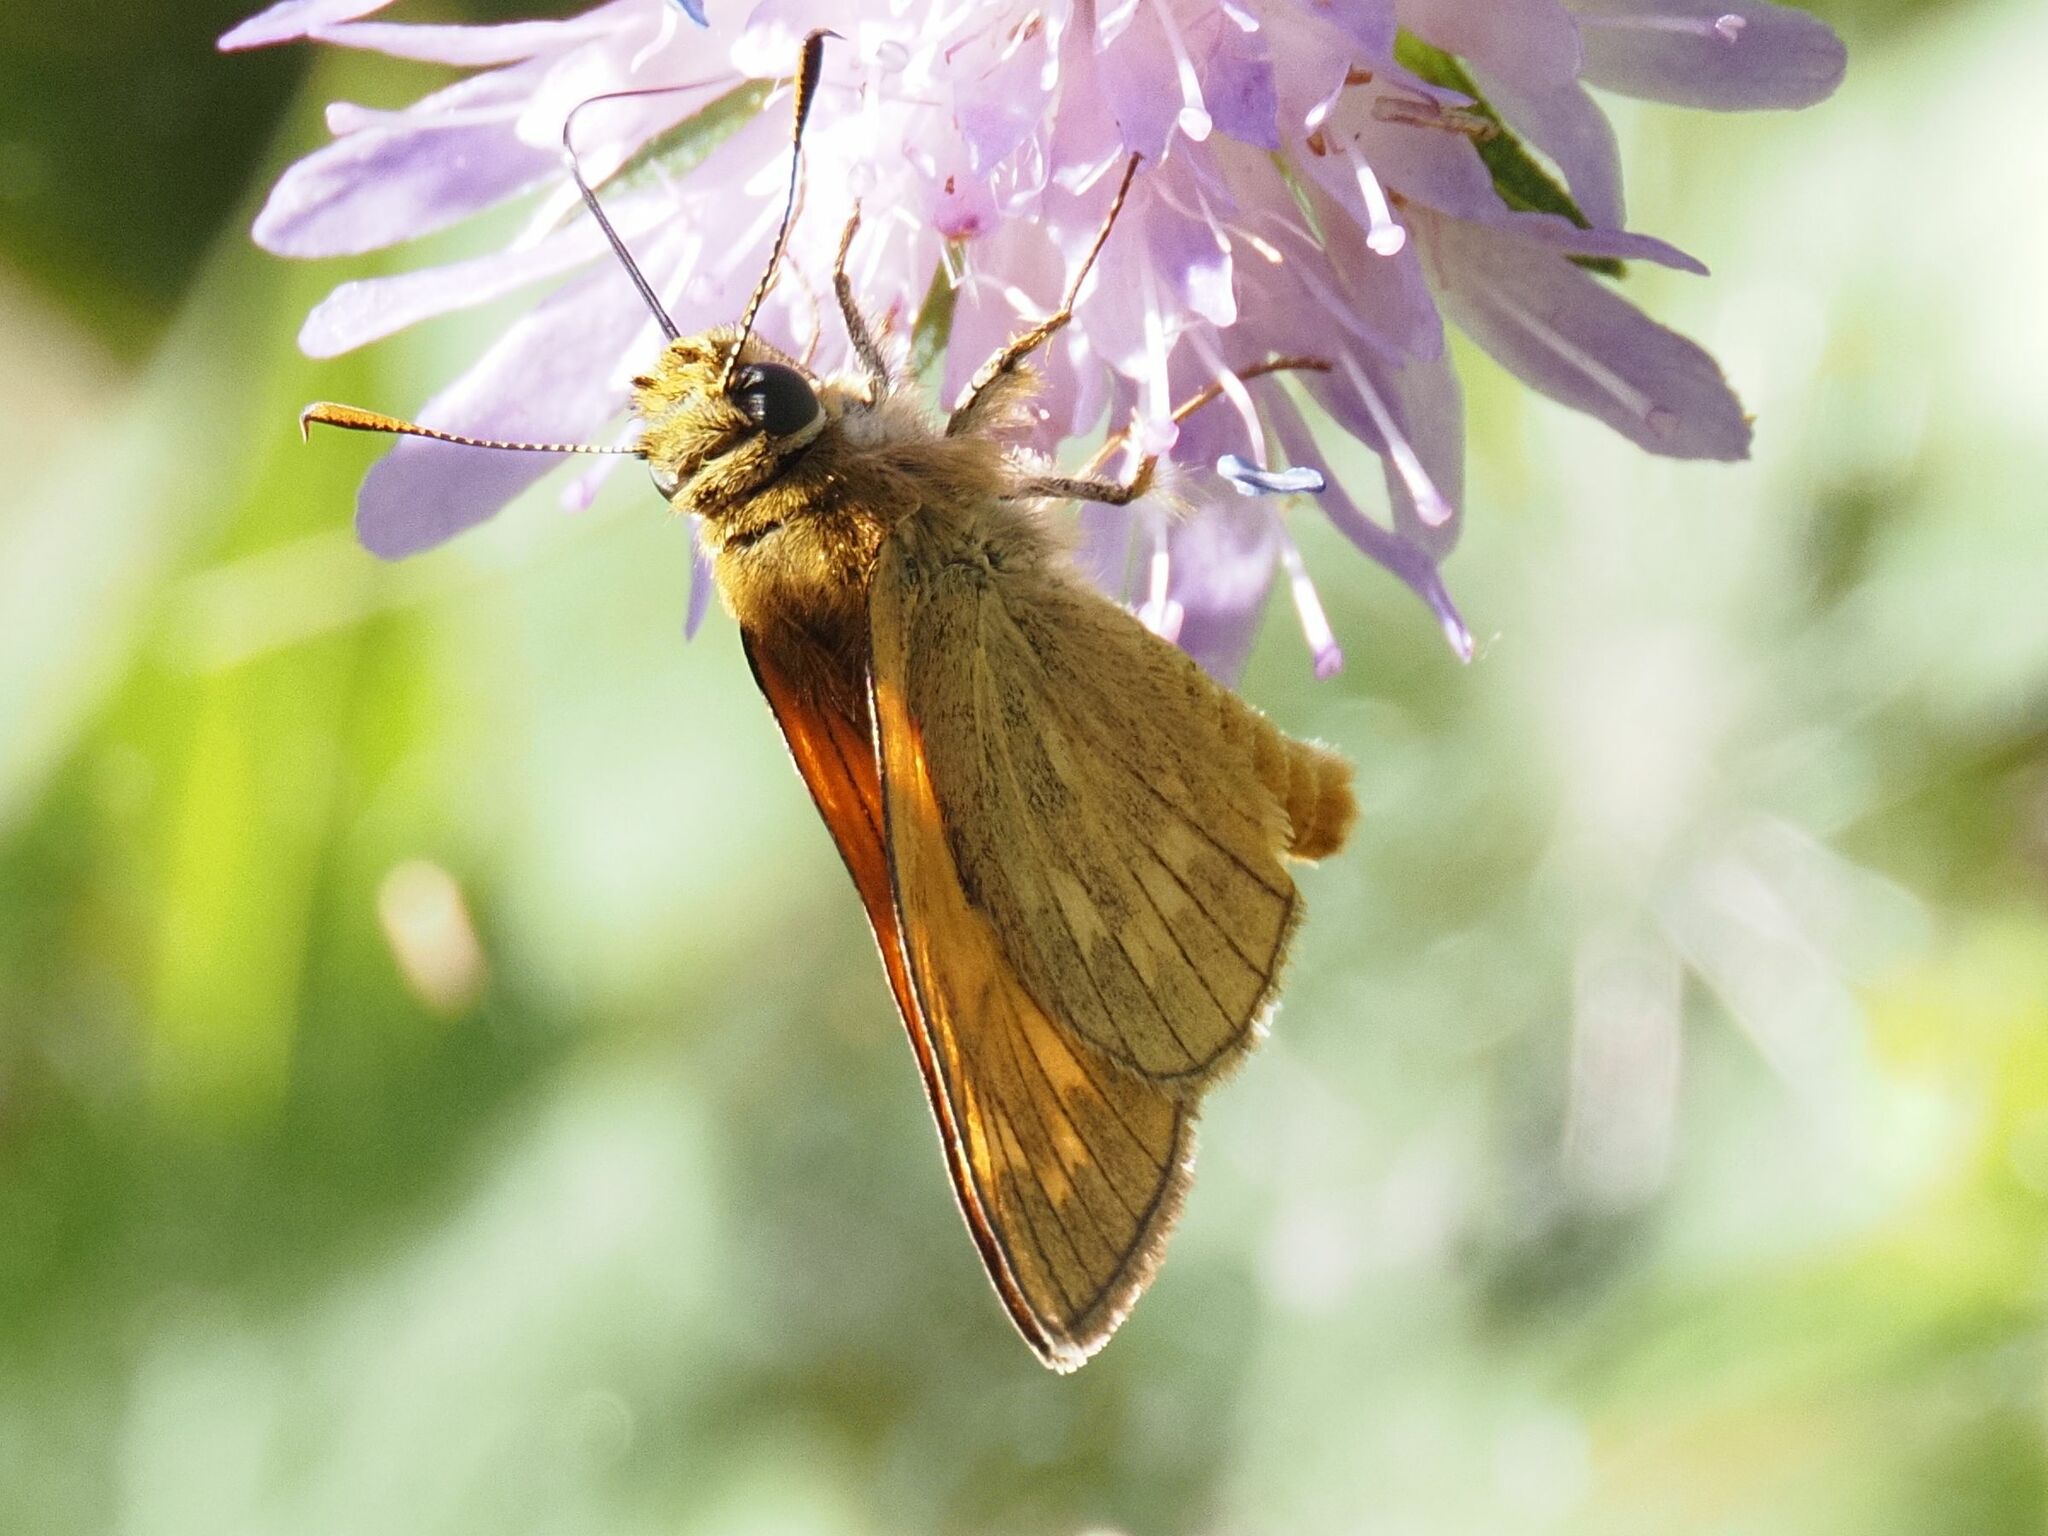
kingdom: Animalia
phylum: Arthropoda
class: Insecta
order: Lepidoptera
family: Hesperiidae
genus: Ochlodes
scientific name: Ochlodes venata
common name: Large skipper
